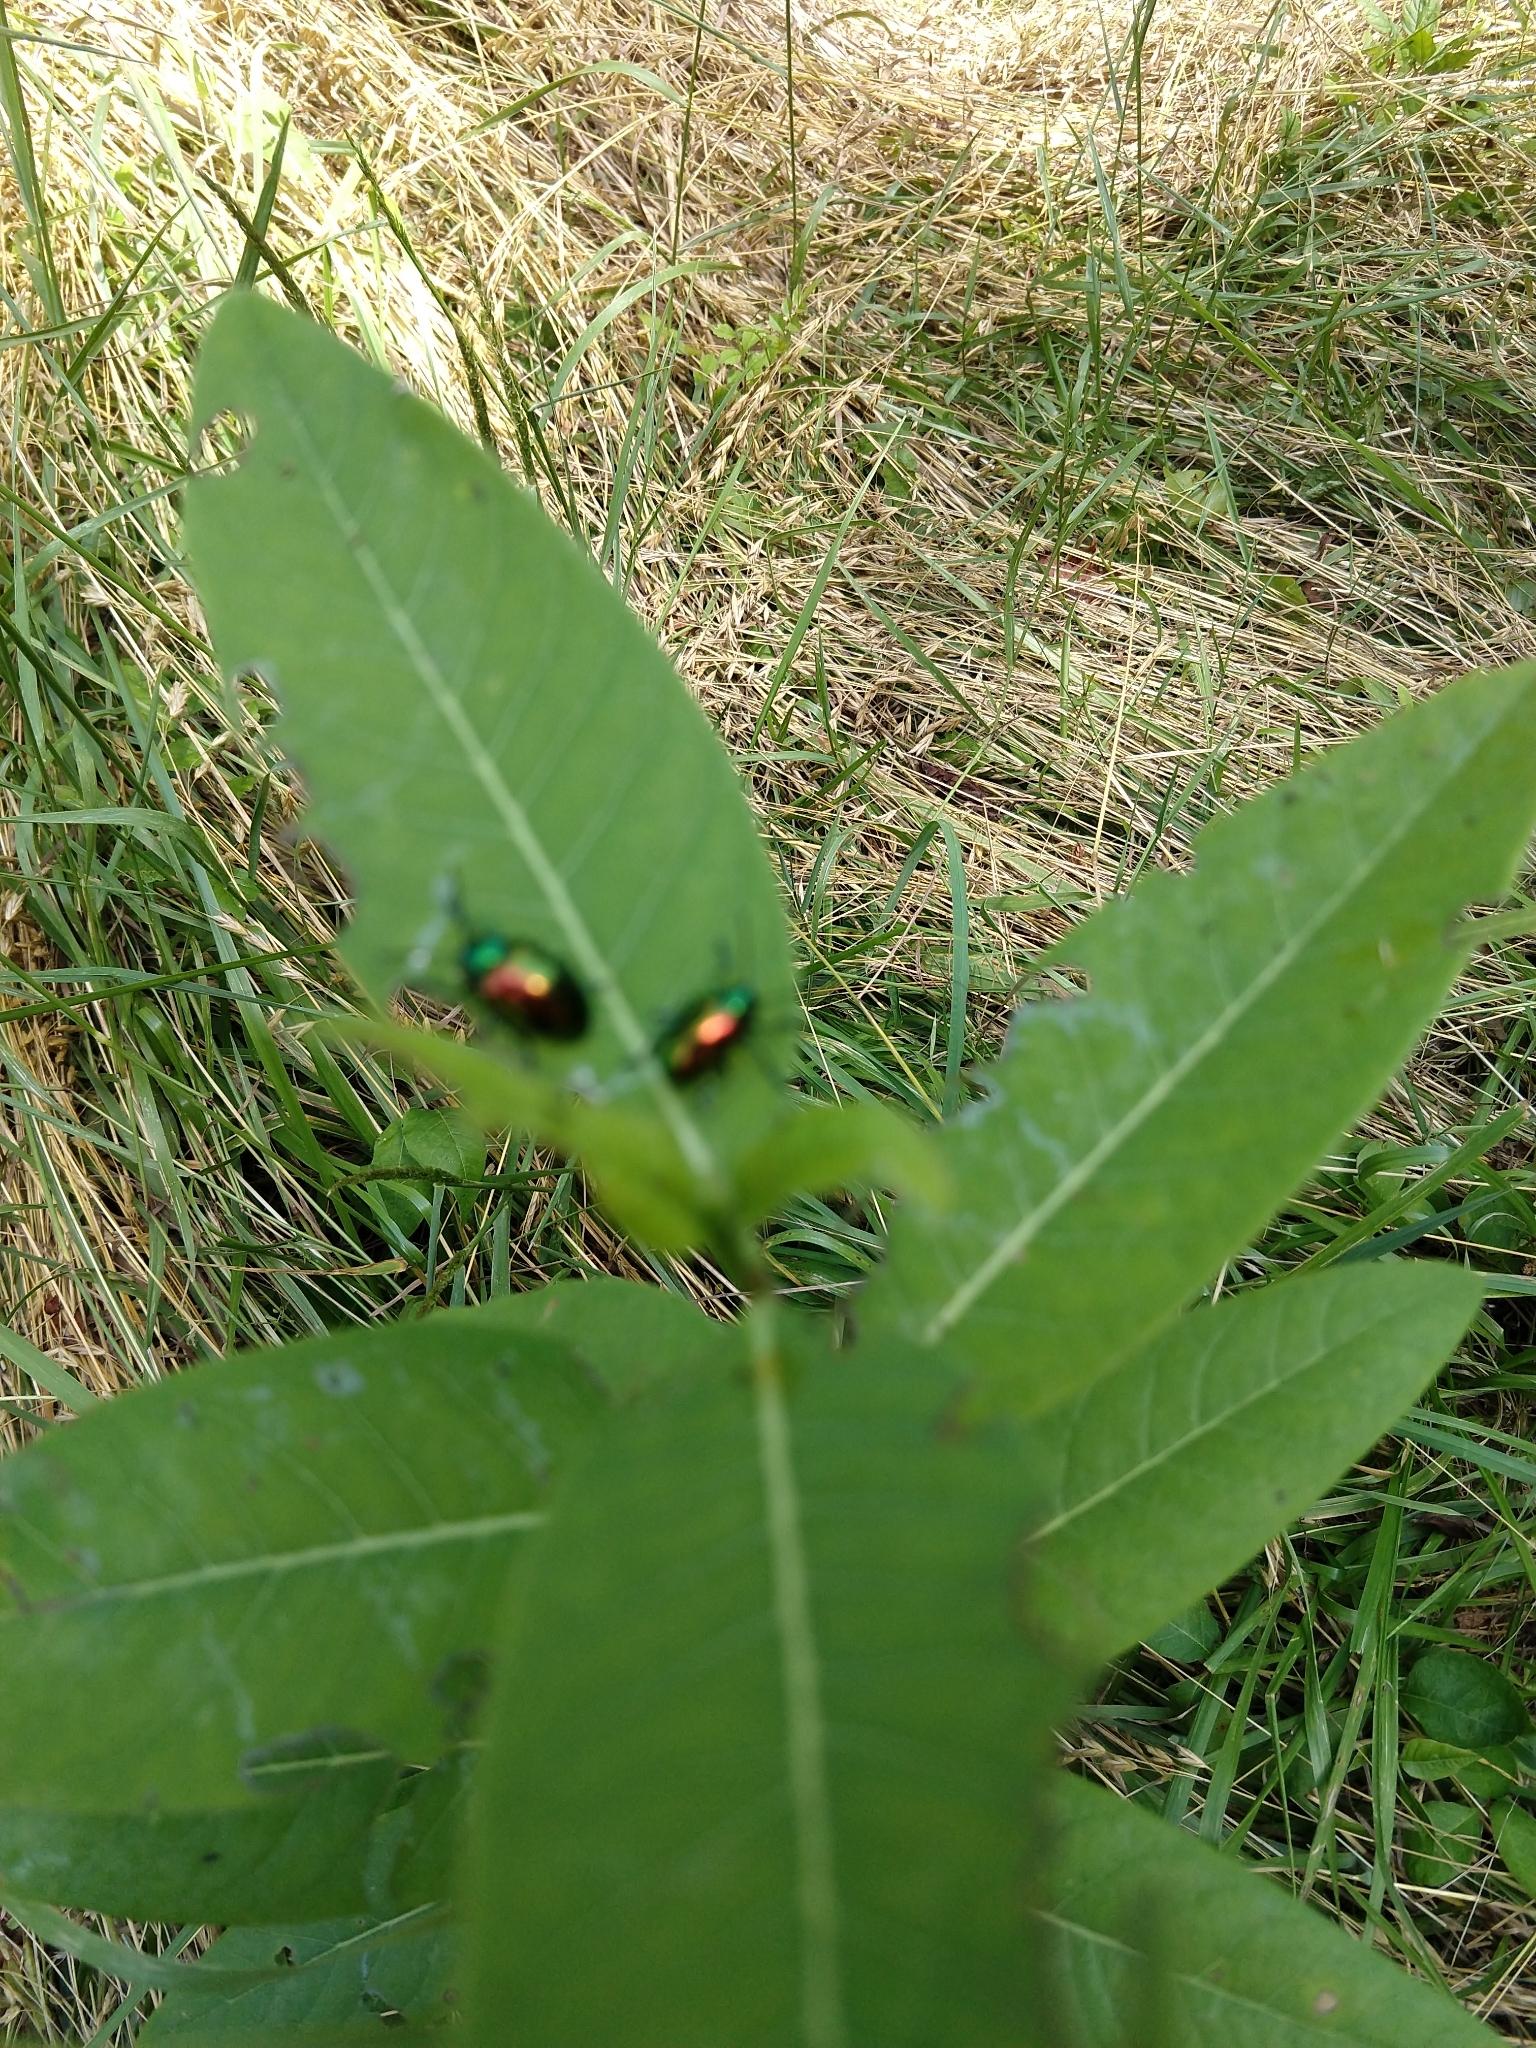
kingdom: Animalia
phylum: Arthropoda
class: Insecta
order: Coleoptera
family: Chrysomelidae
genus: Chrysochus
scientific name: Chrysochus auratus
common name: Dogbane leaf beetle
